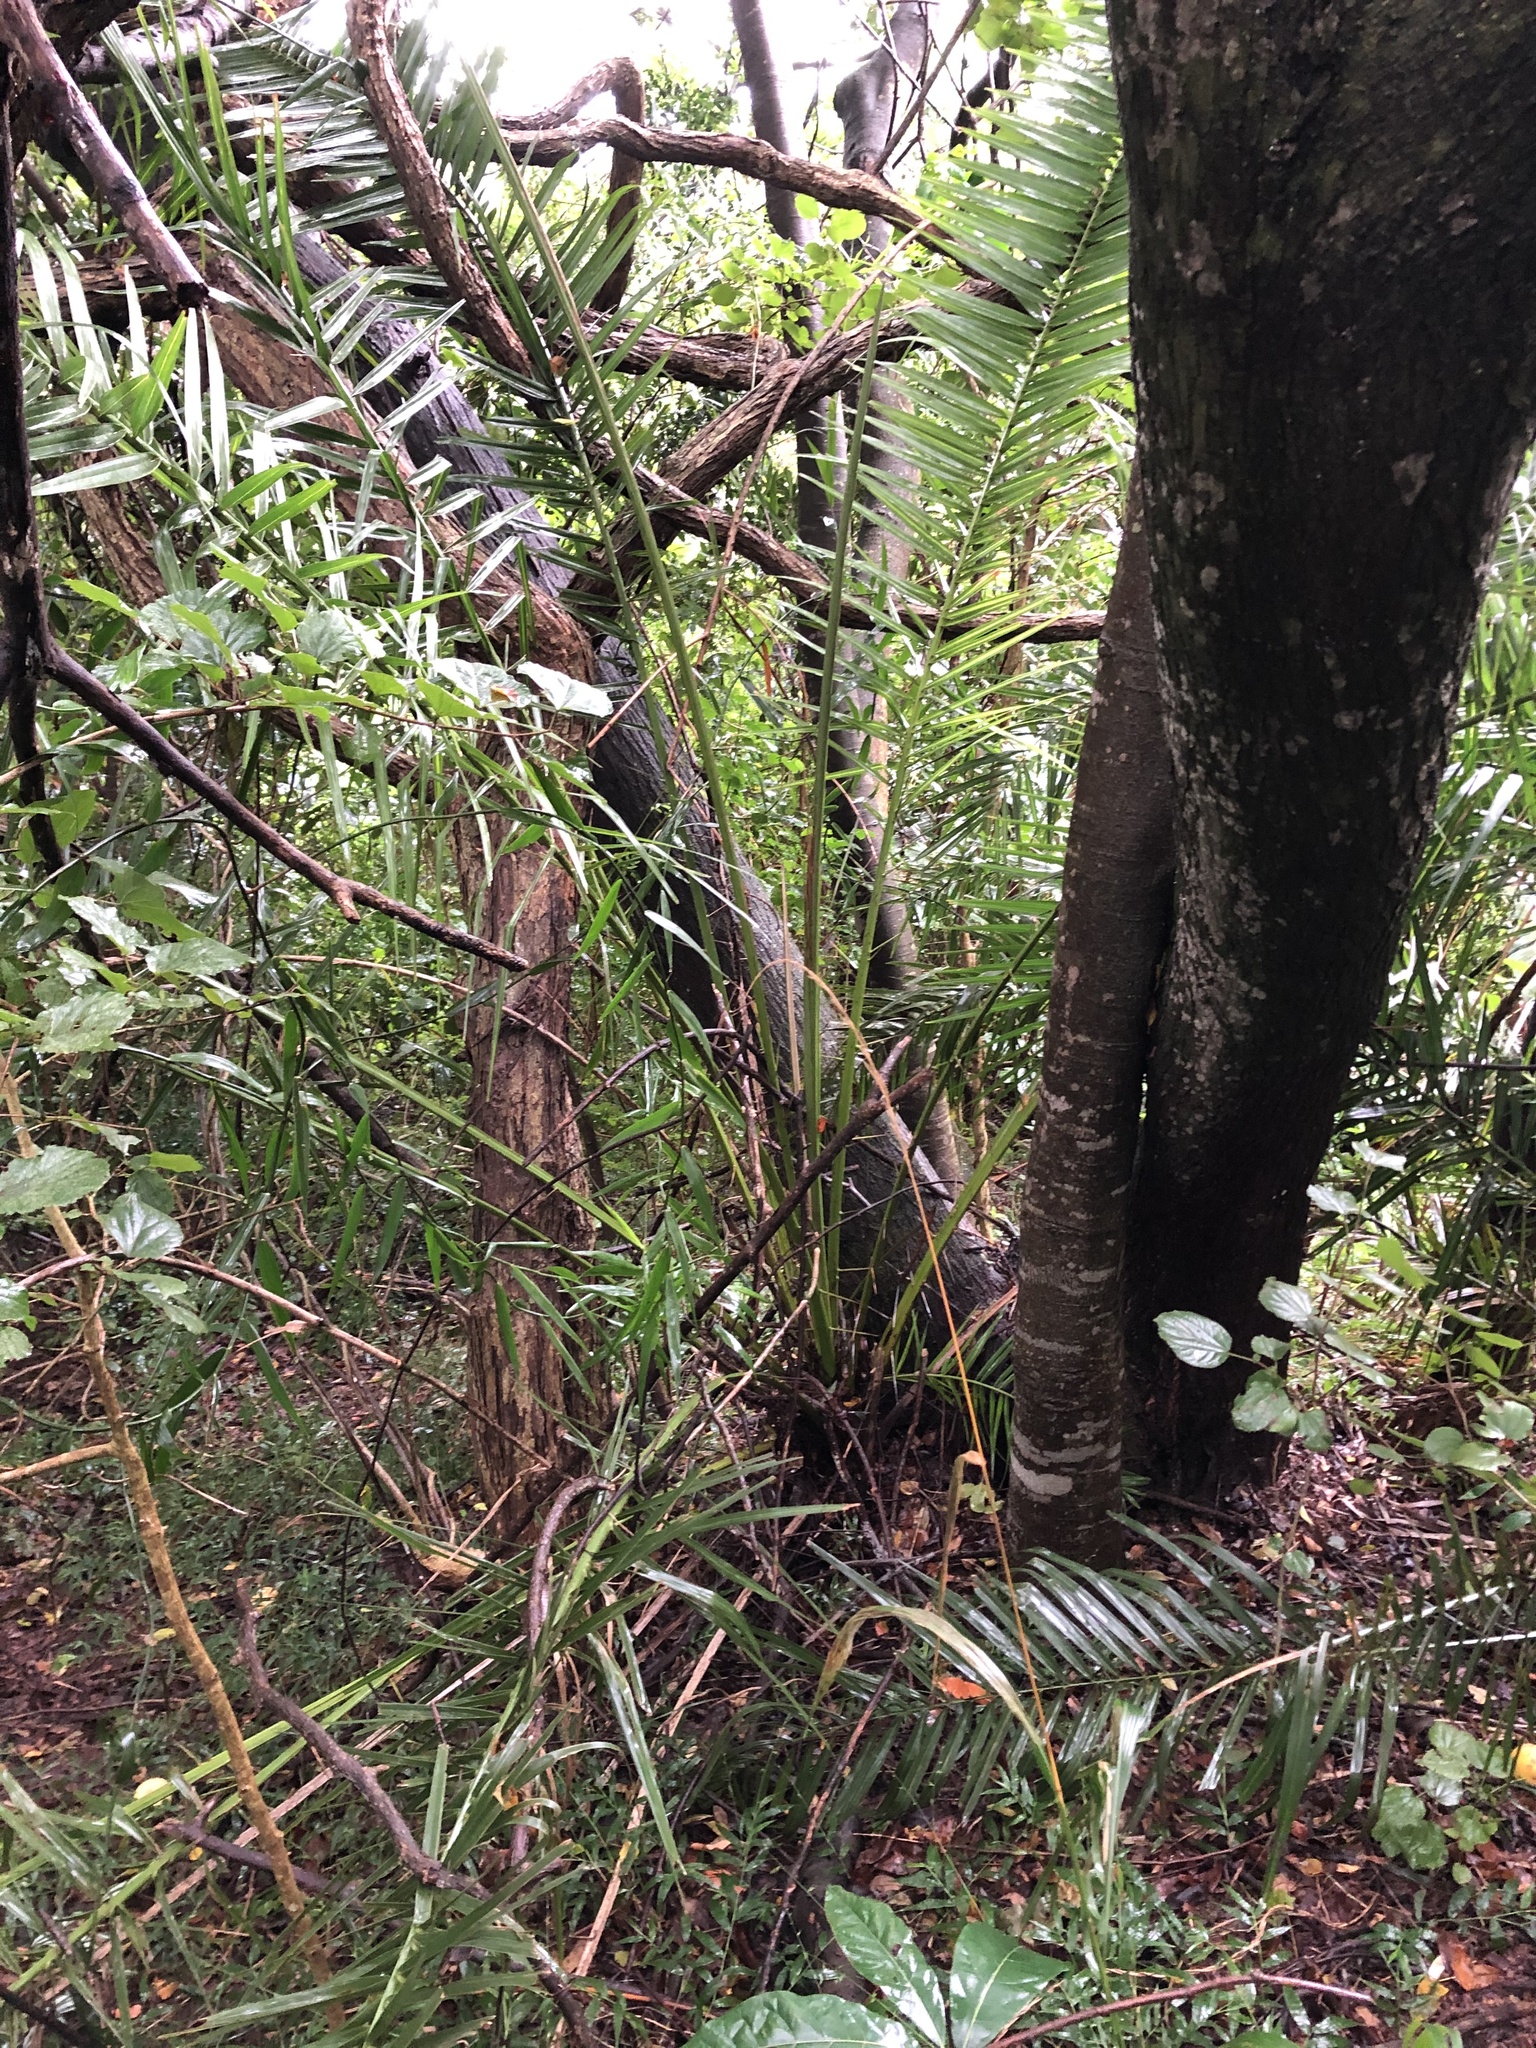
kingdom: Plantae
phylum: Tracheophyta
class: Liliopsida
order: Arecales
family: Arecaceae
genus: Phoenix
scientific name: Phoenix reclinata
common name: Senegal date palm
